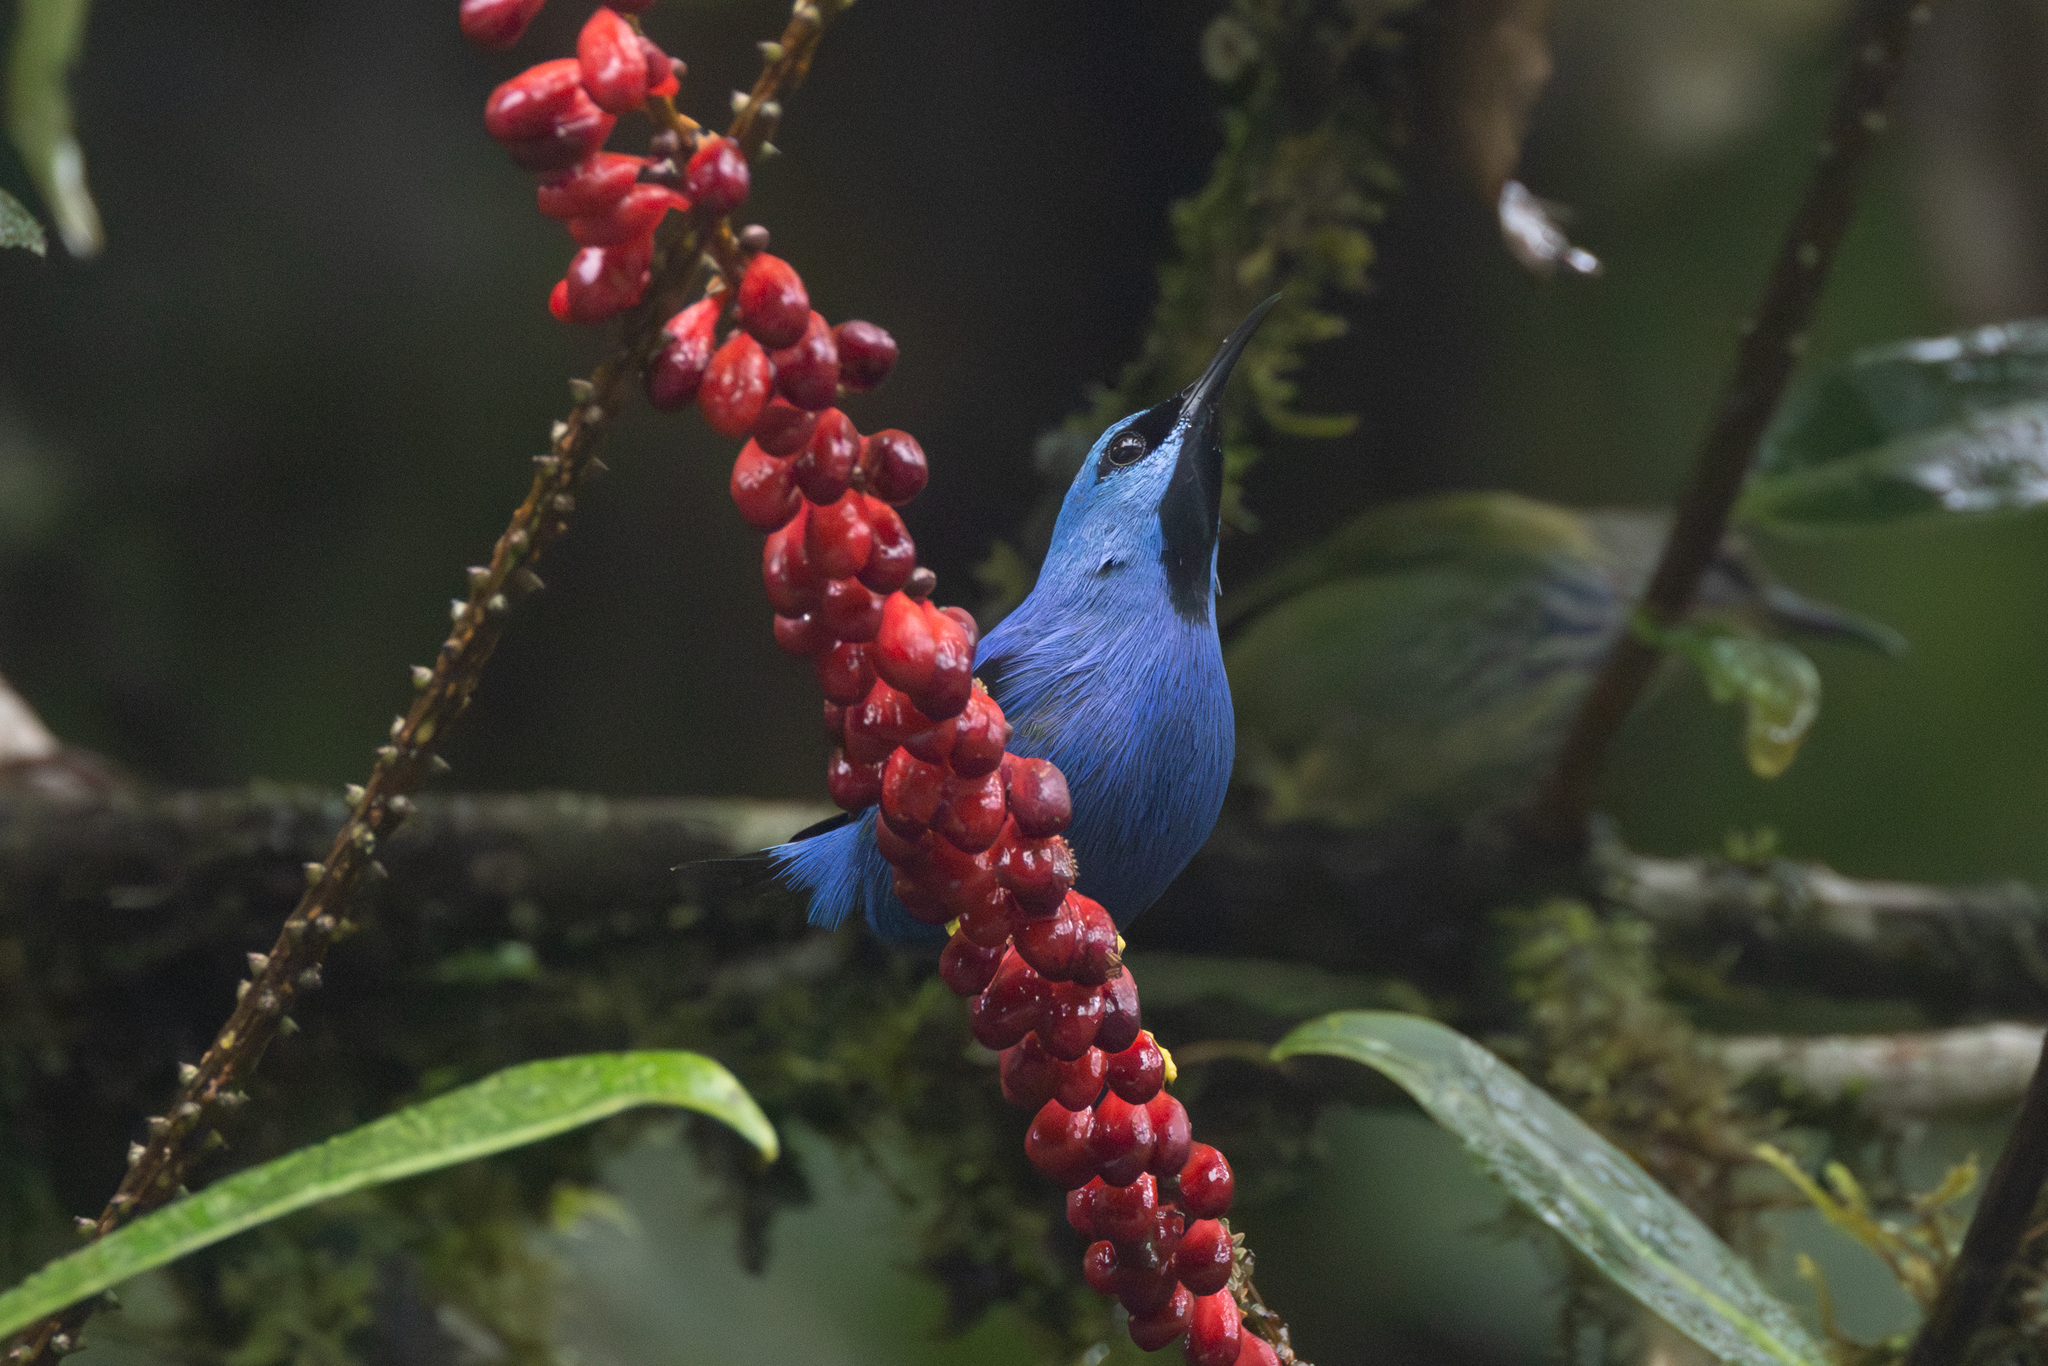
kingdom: Animalia
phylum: Chordata
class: Aves
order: Passeriformes
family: Thraupidae
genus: Cyanerpes
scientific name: Cyanerpes lucidus
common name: Shining honeycreeper
